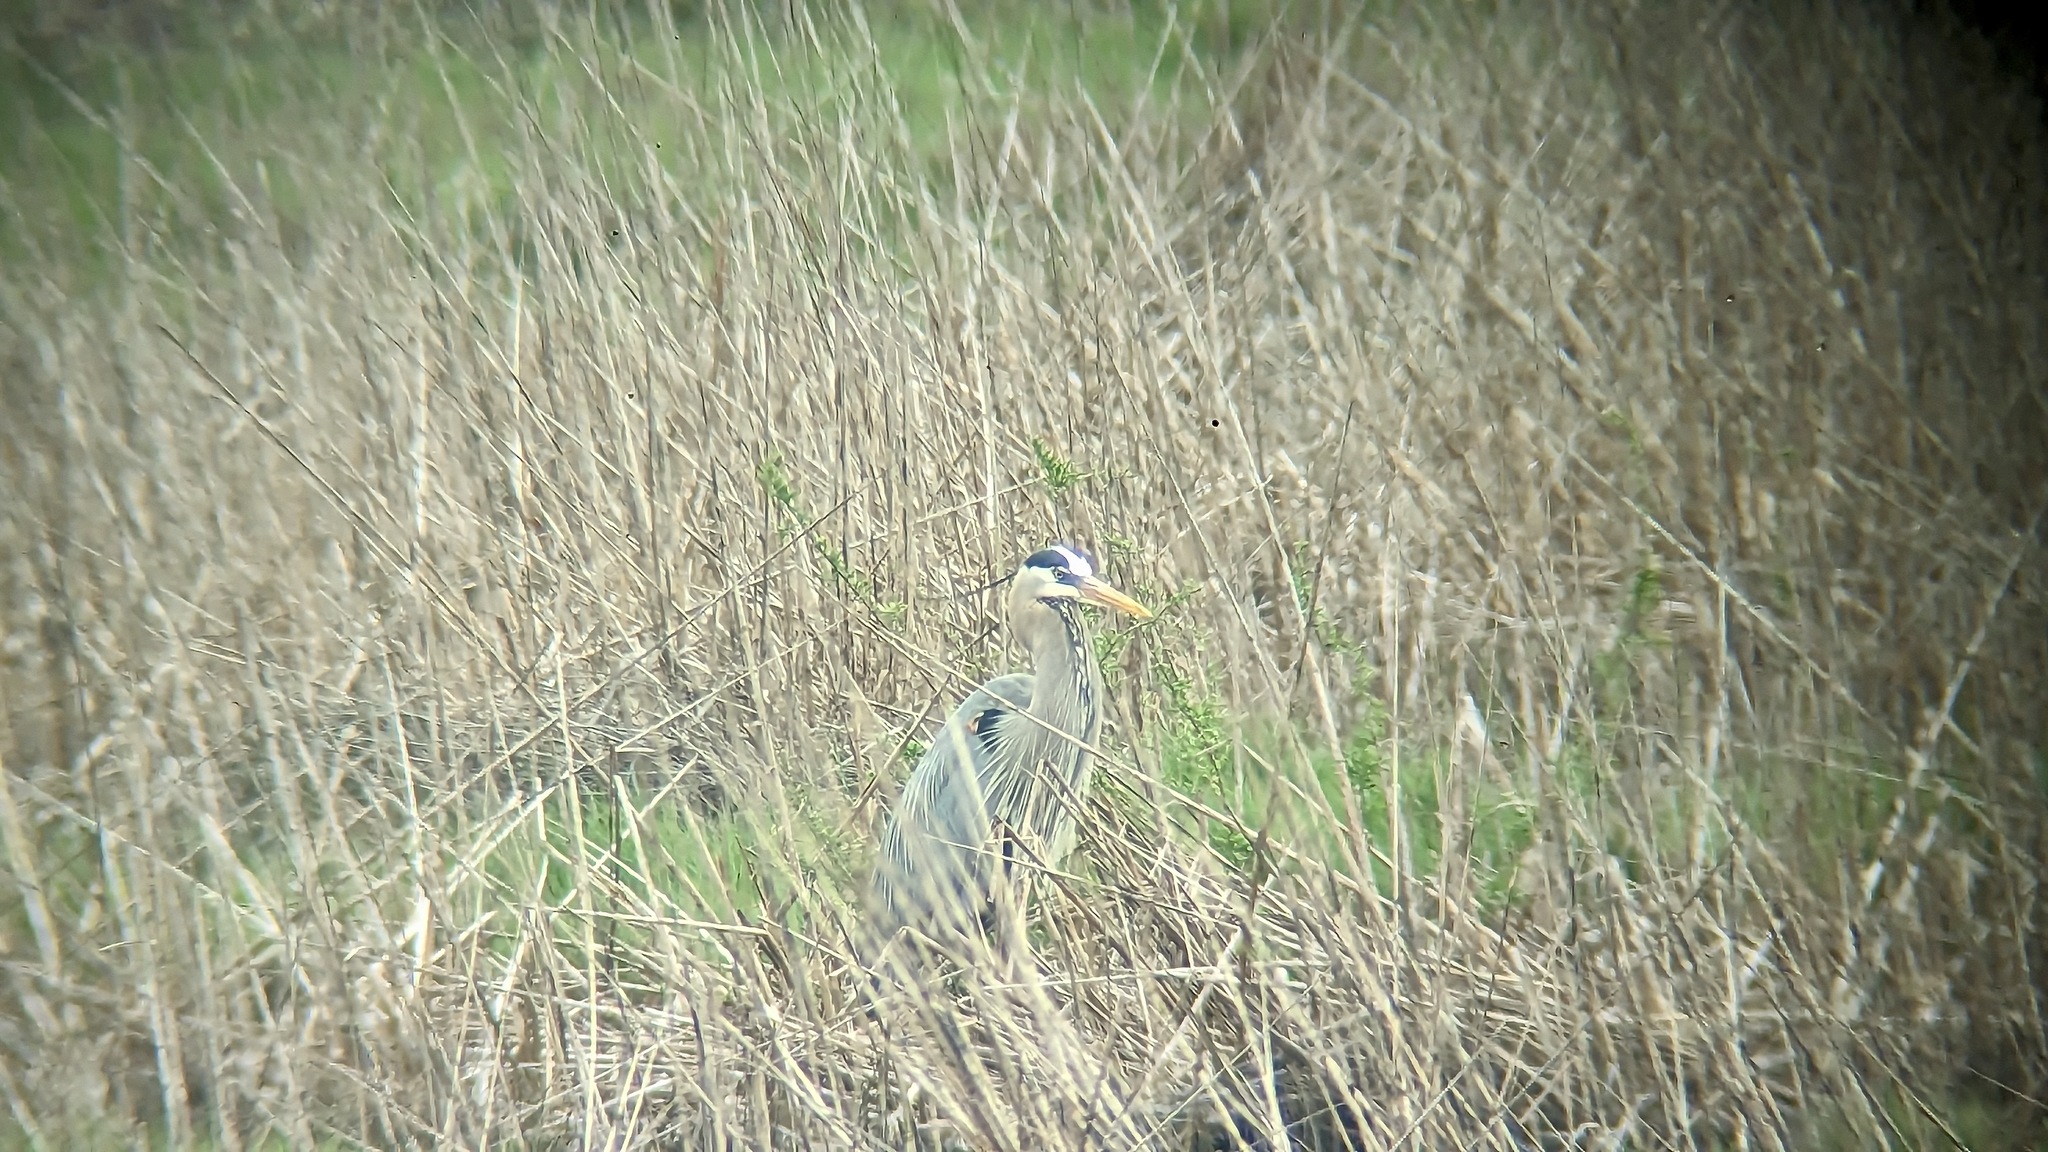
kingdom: Animalia
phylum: Chordata
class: Aves
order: Pelecaniformes
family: Ardeidae
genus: Ardea
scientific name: Ardea herodias
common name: Great blue heron
